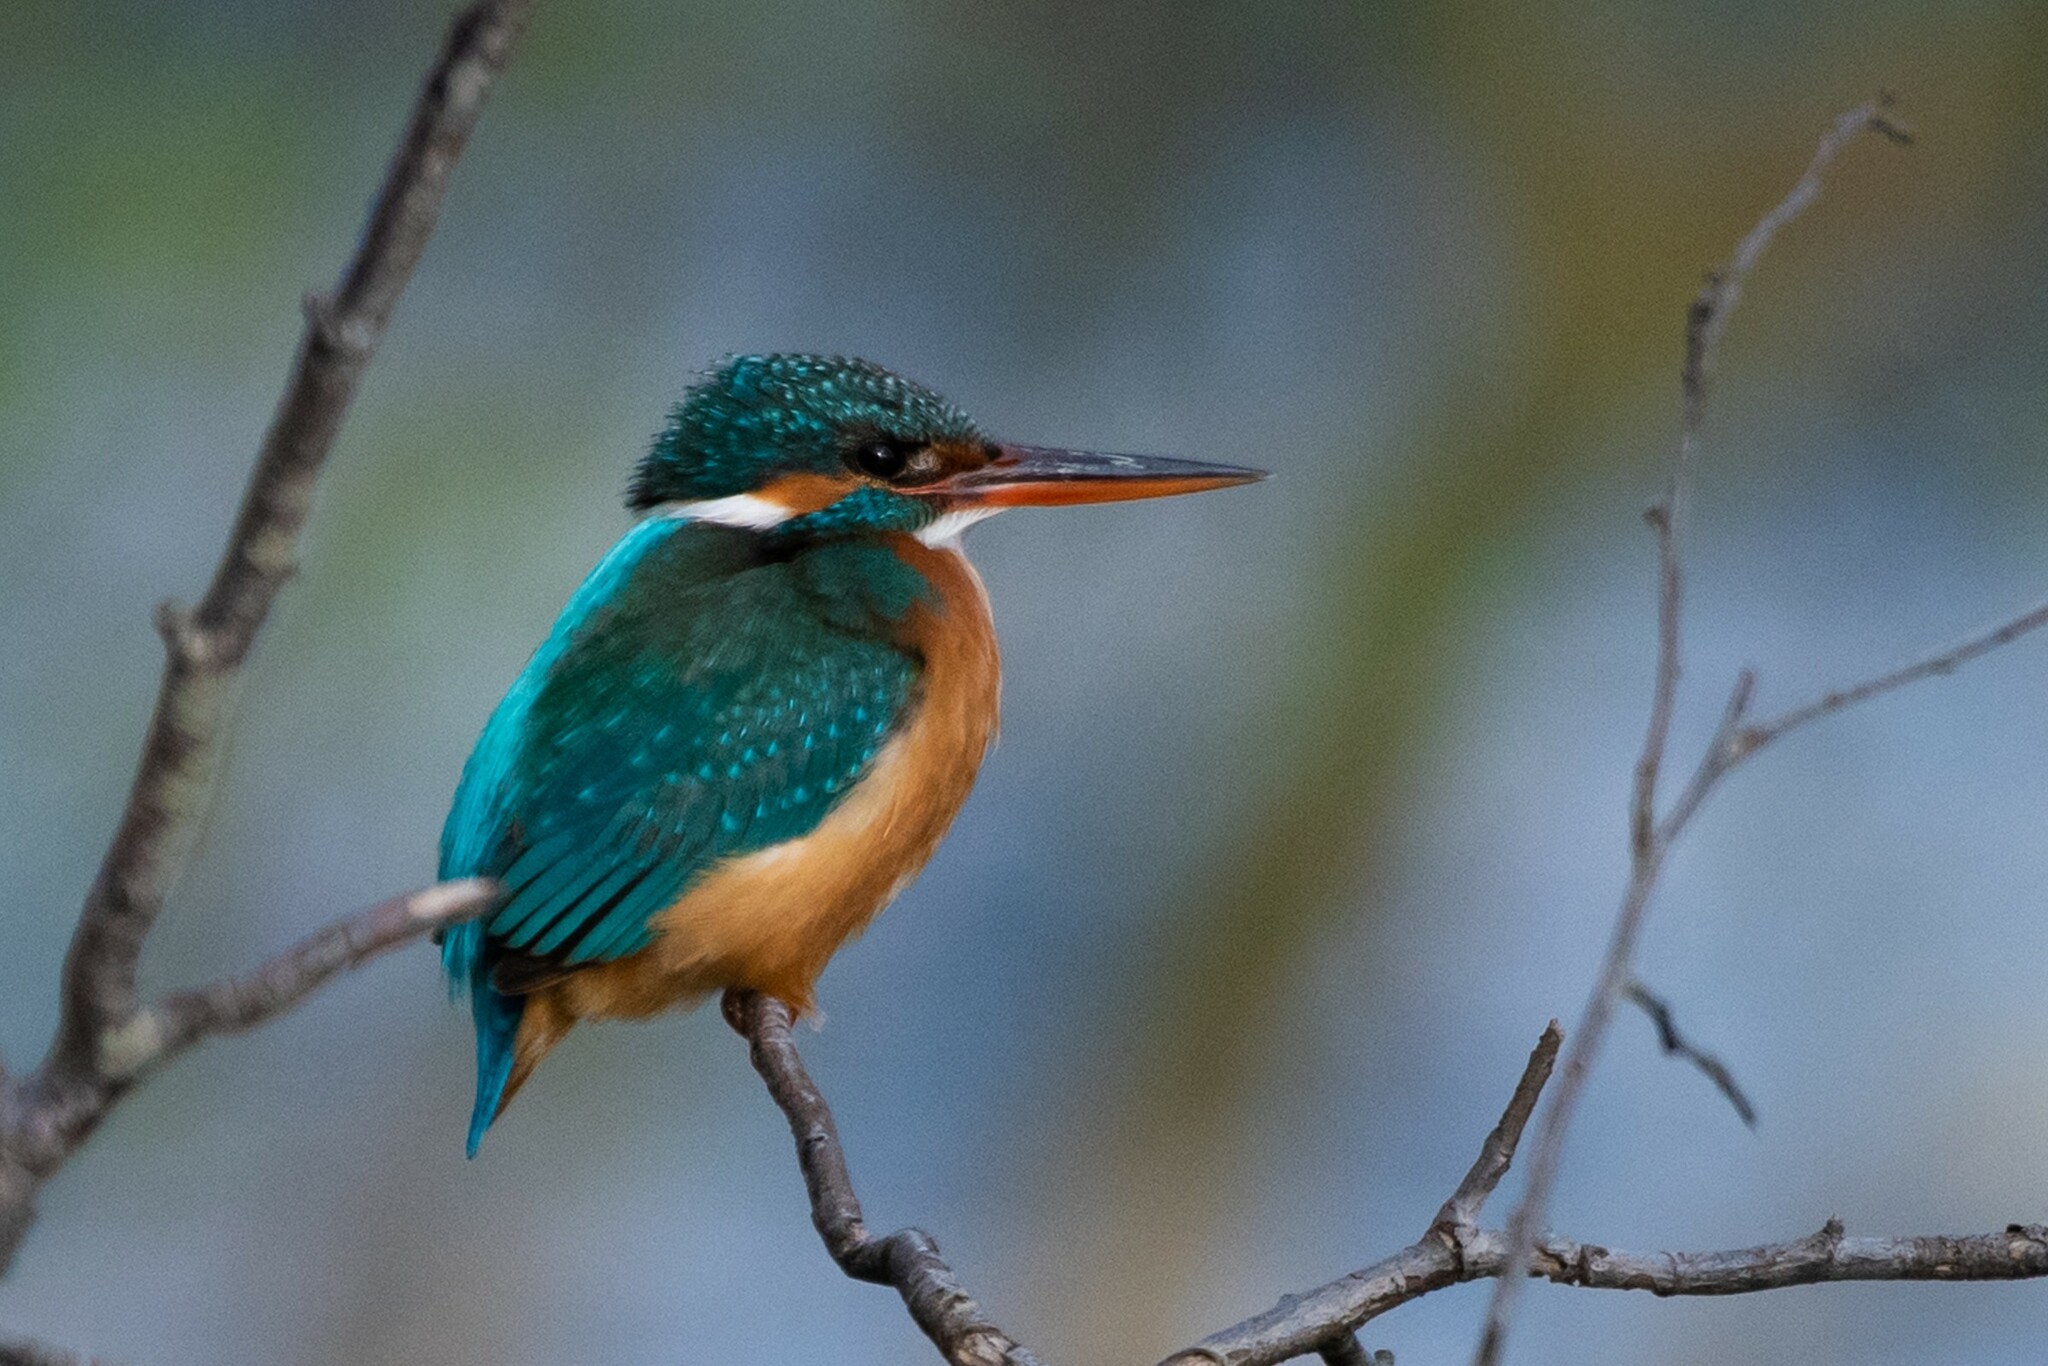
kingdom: Animalia
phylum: Chordata
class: Aves
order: Coraciiformes
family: Alcedinidae
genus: Alcedo
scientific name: Alcedo atthis
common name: Common kingfisher
